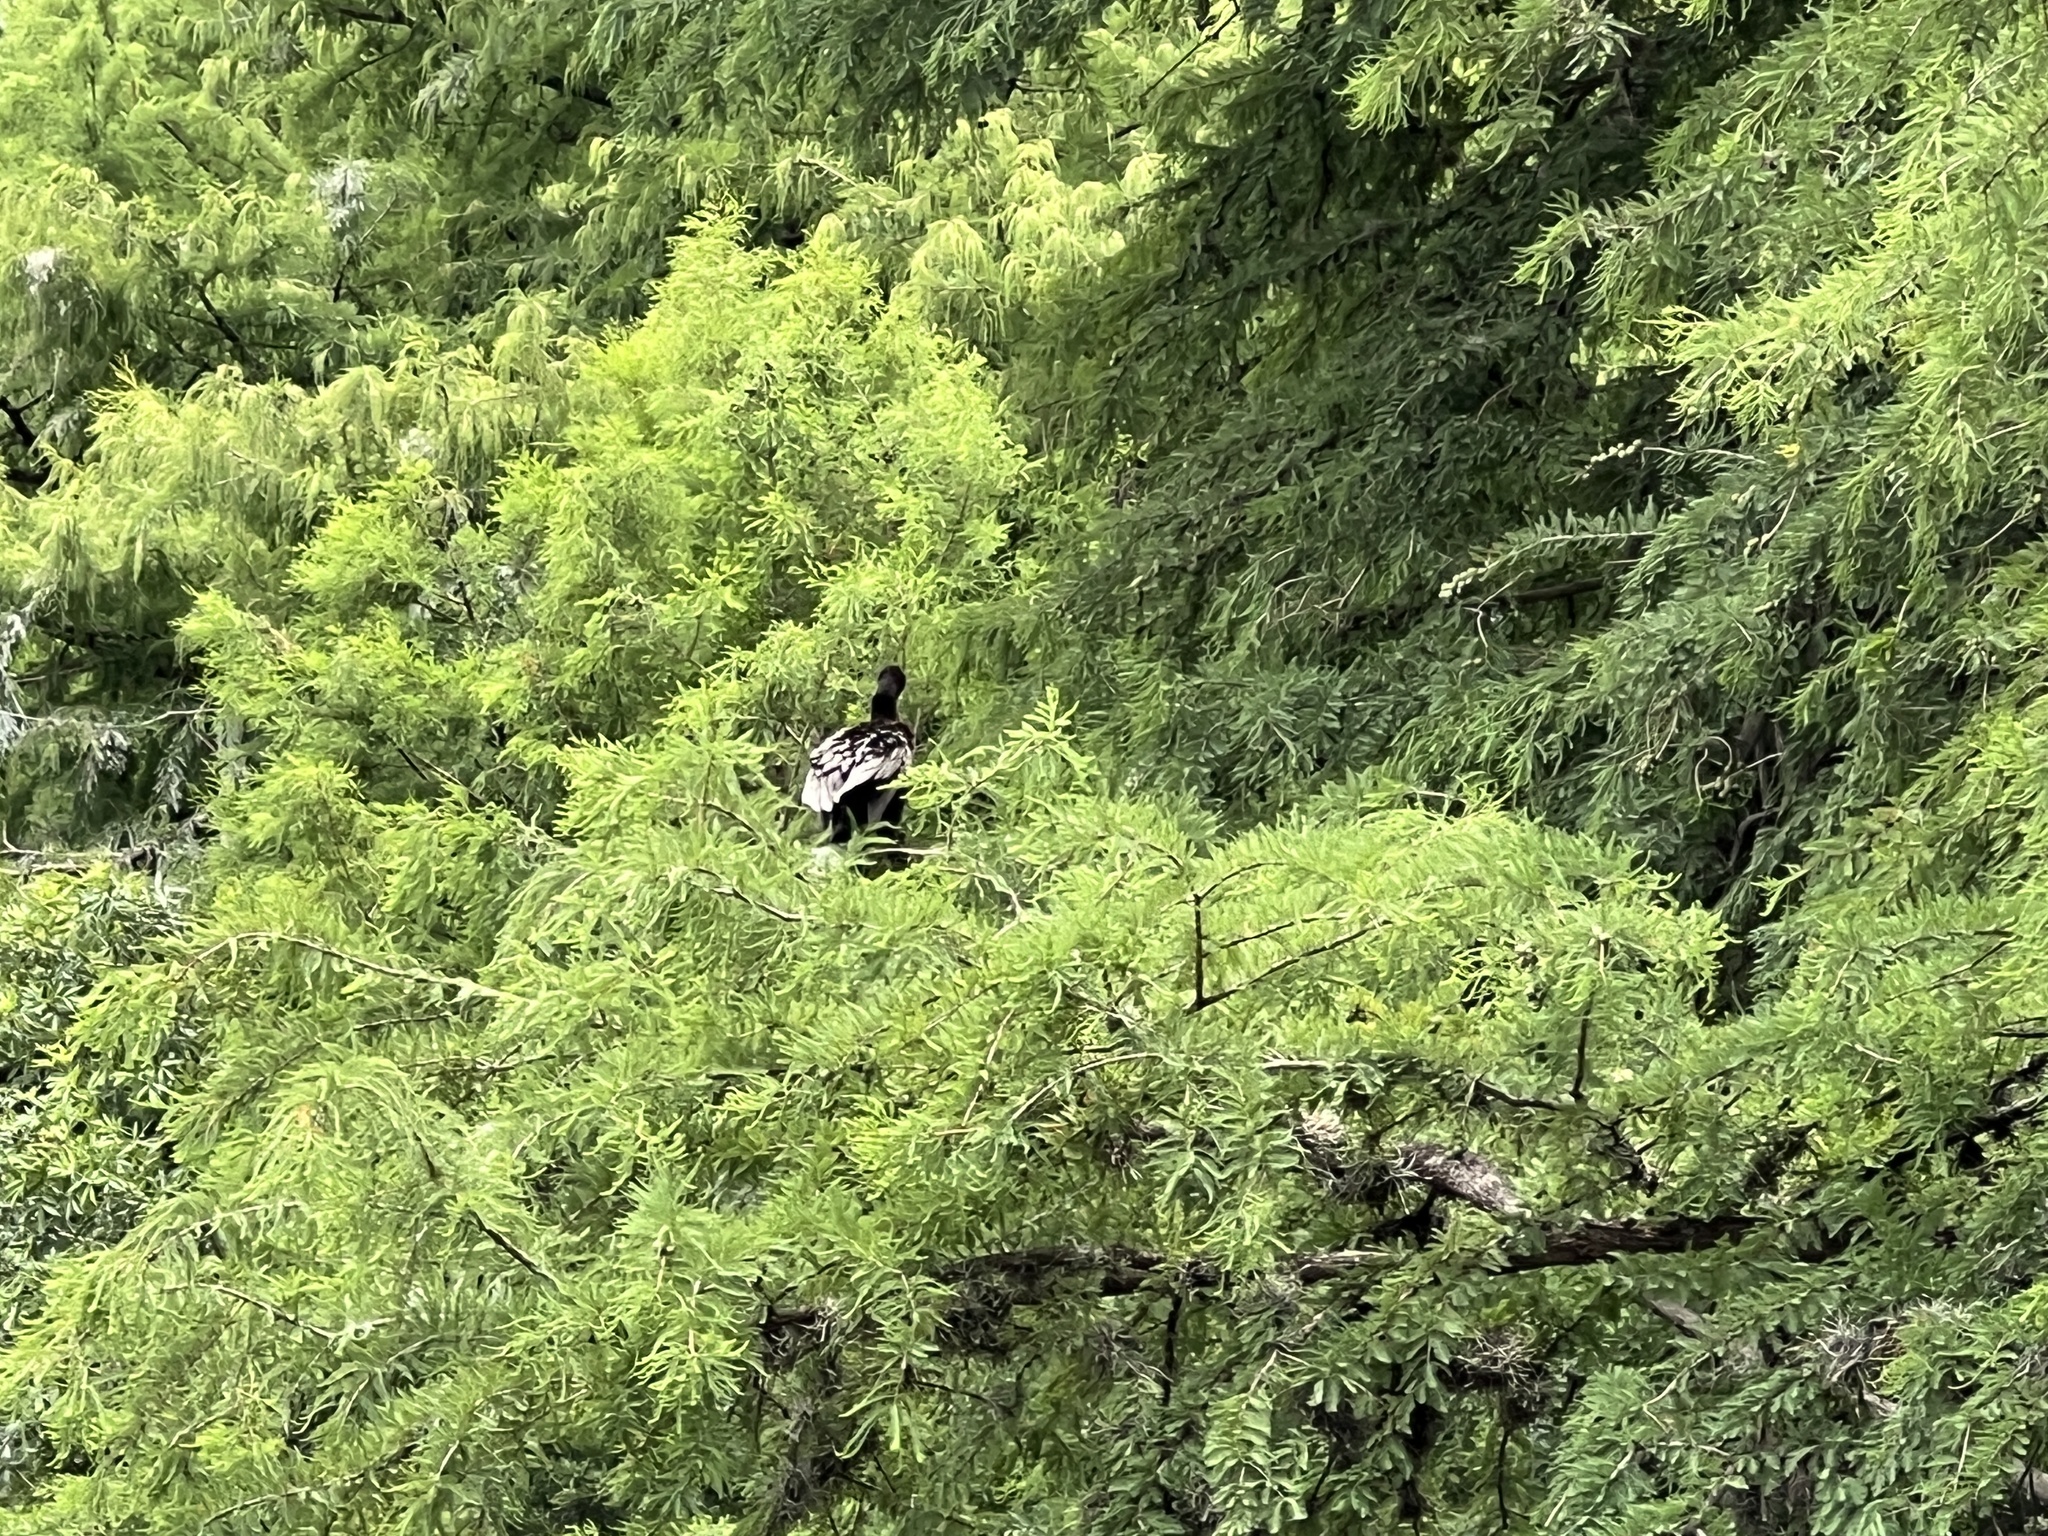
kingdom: Animalia
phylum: Chordata
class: Aves
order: Suliformes
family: Phalacrocoracidae
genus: Phalacrocorax
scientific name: Phalacrocorax brasilianus
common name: Neotropic cormorant
